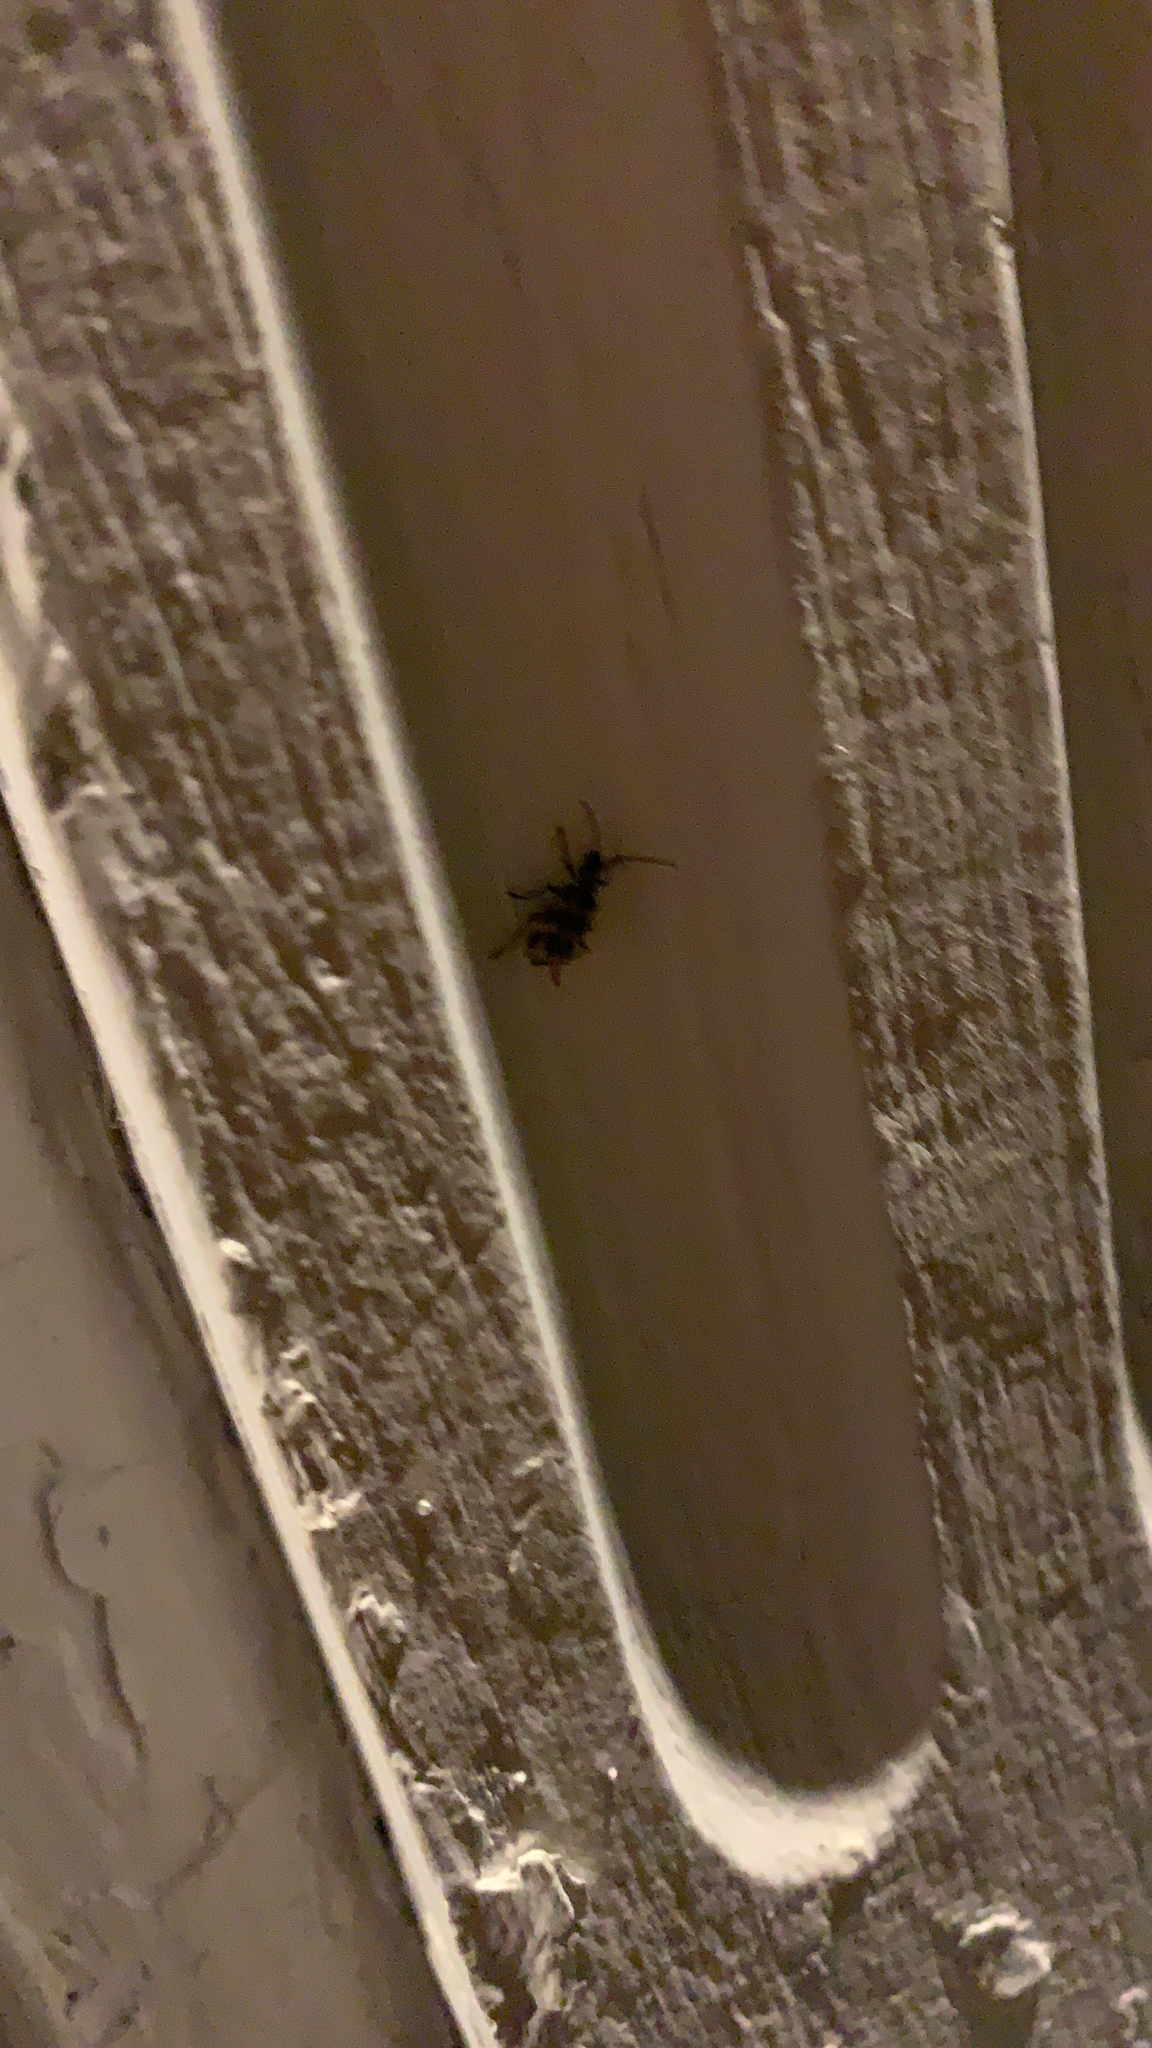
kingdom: Animalia
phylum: Arthropoda
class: Insecta
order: Coleoptera
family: Chrysomelidae
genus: Diabrotica
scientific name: Diabrotica undecimpunctata
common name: Spotted cucumber beetle
